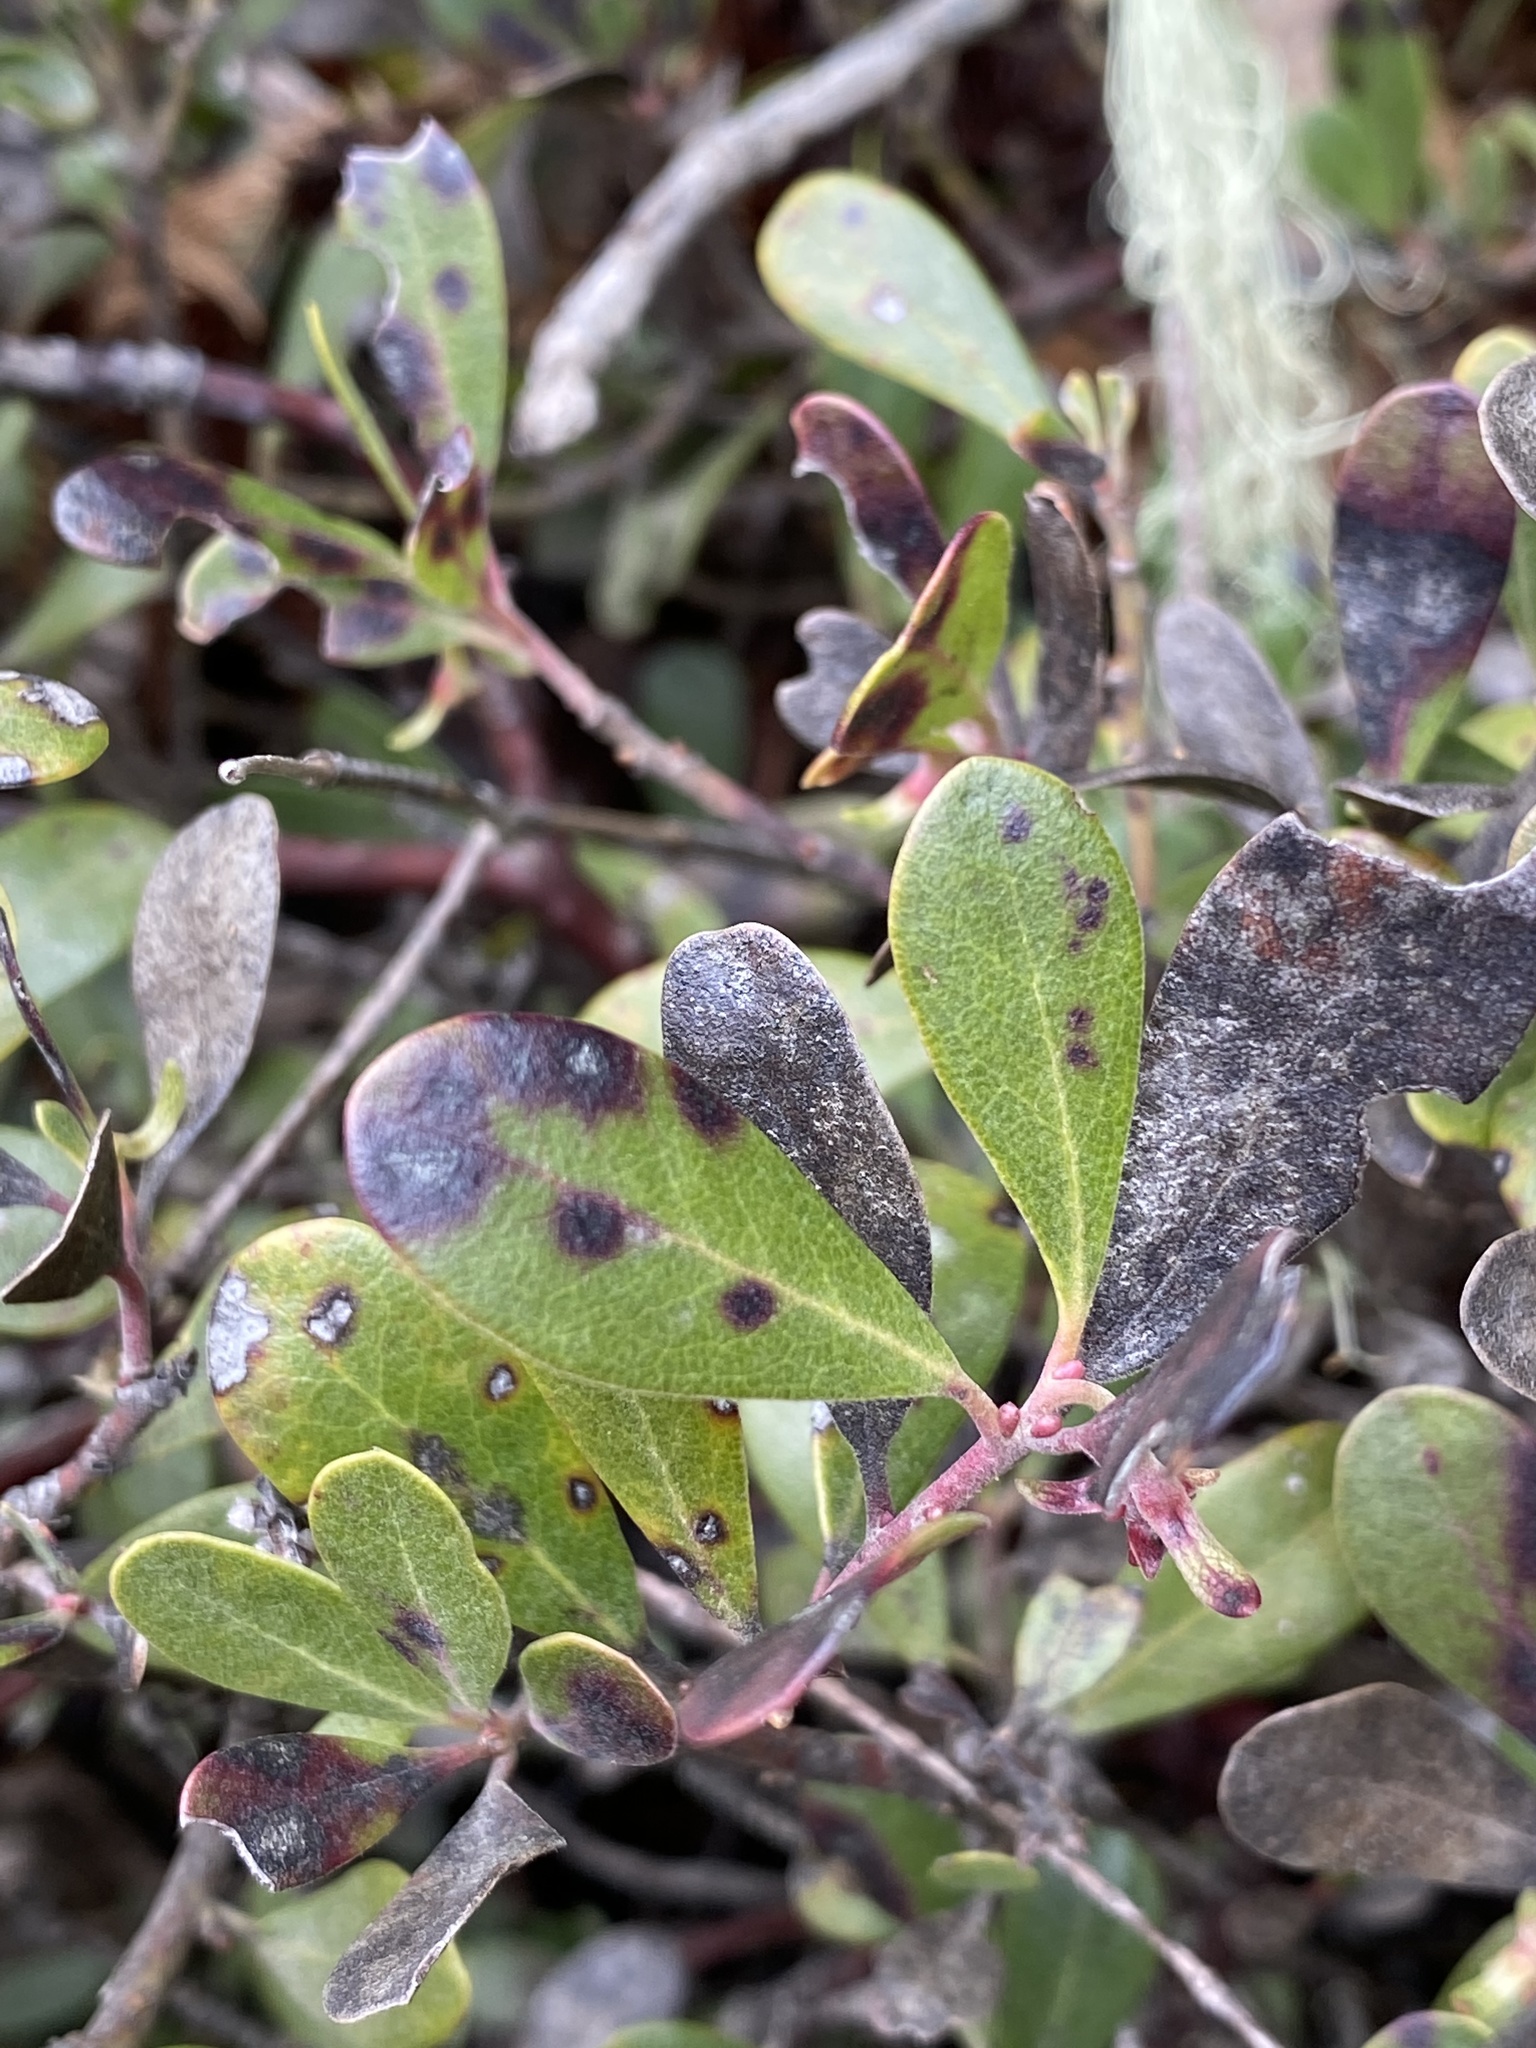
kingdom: Plantae
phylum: Tracheophyta
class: Magnoliopsida
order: Ericales
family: Ericaceae
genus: Arctostaphylos
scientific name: Arctostaphylos media
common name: Hybrid manzanita
